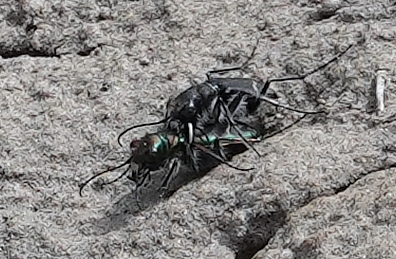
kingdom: Animalia
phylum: Arthropoda
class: Insecta
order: Coleoptera
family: Carabidae
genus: Cicindela
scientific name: Cicindela purpurea
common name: Cow path tiger beetle
